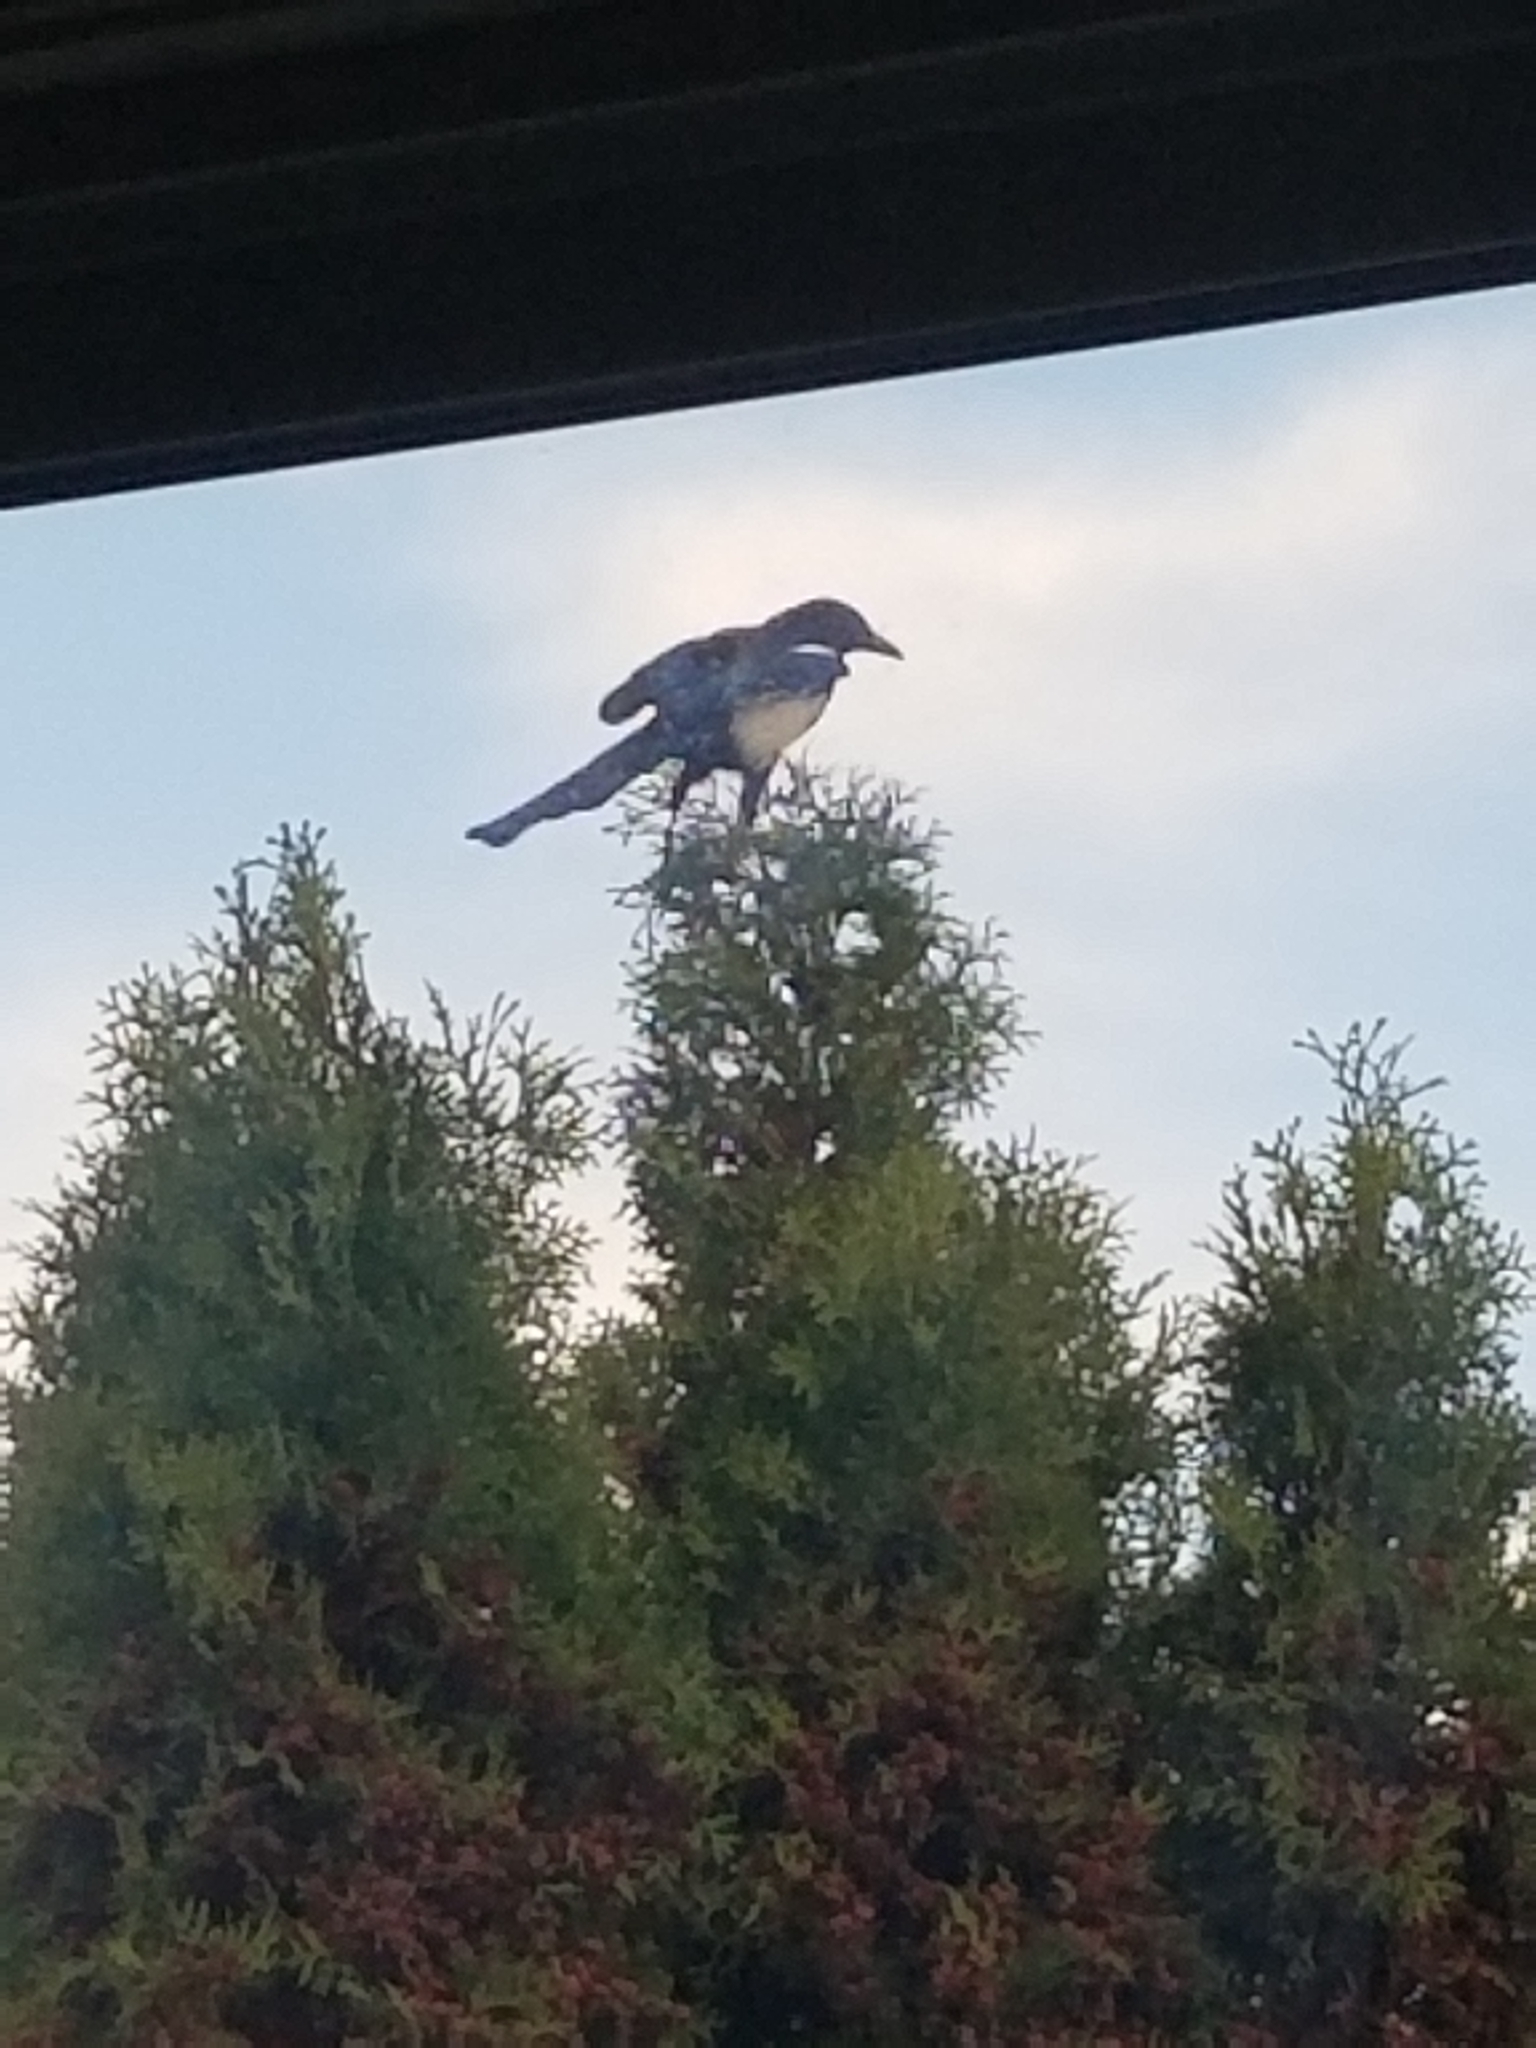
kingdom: Animalia
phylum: Chordata
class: Aves
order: Passeriformes
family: Corvidae
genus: Pica
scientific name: Pica hudsonia
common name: Black-billed magpie
